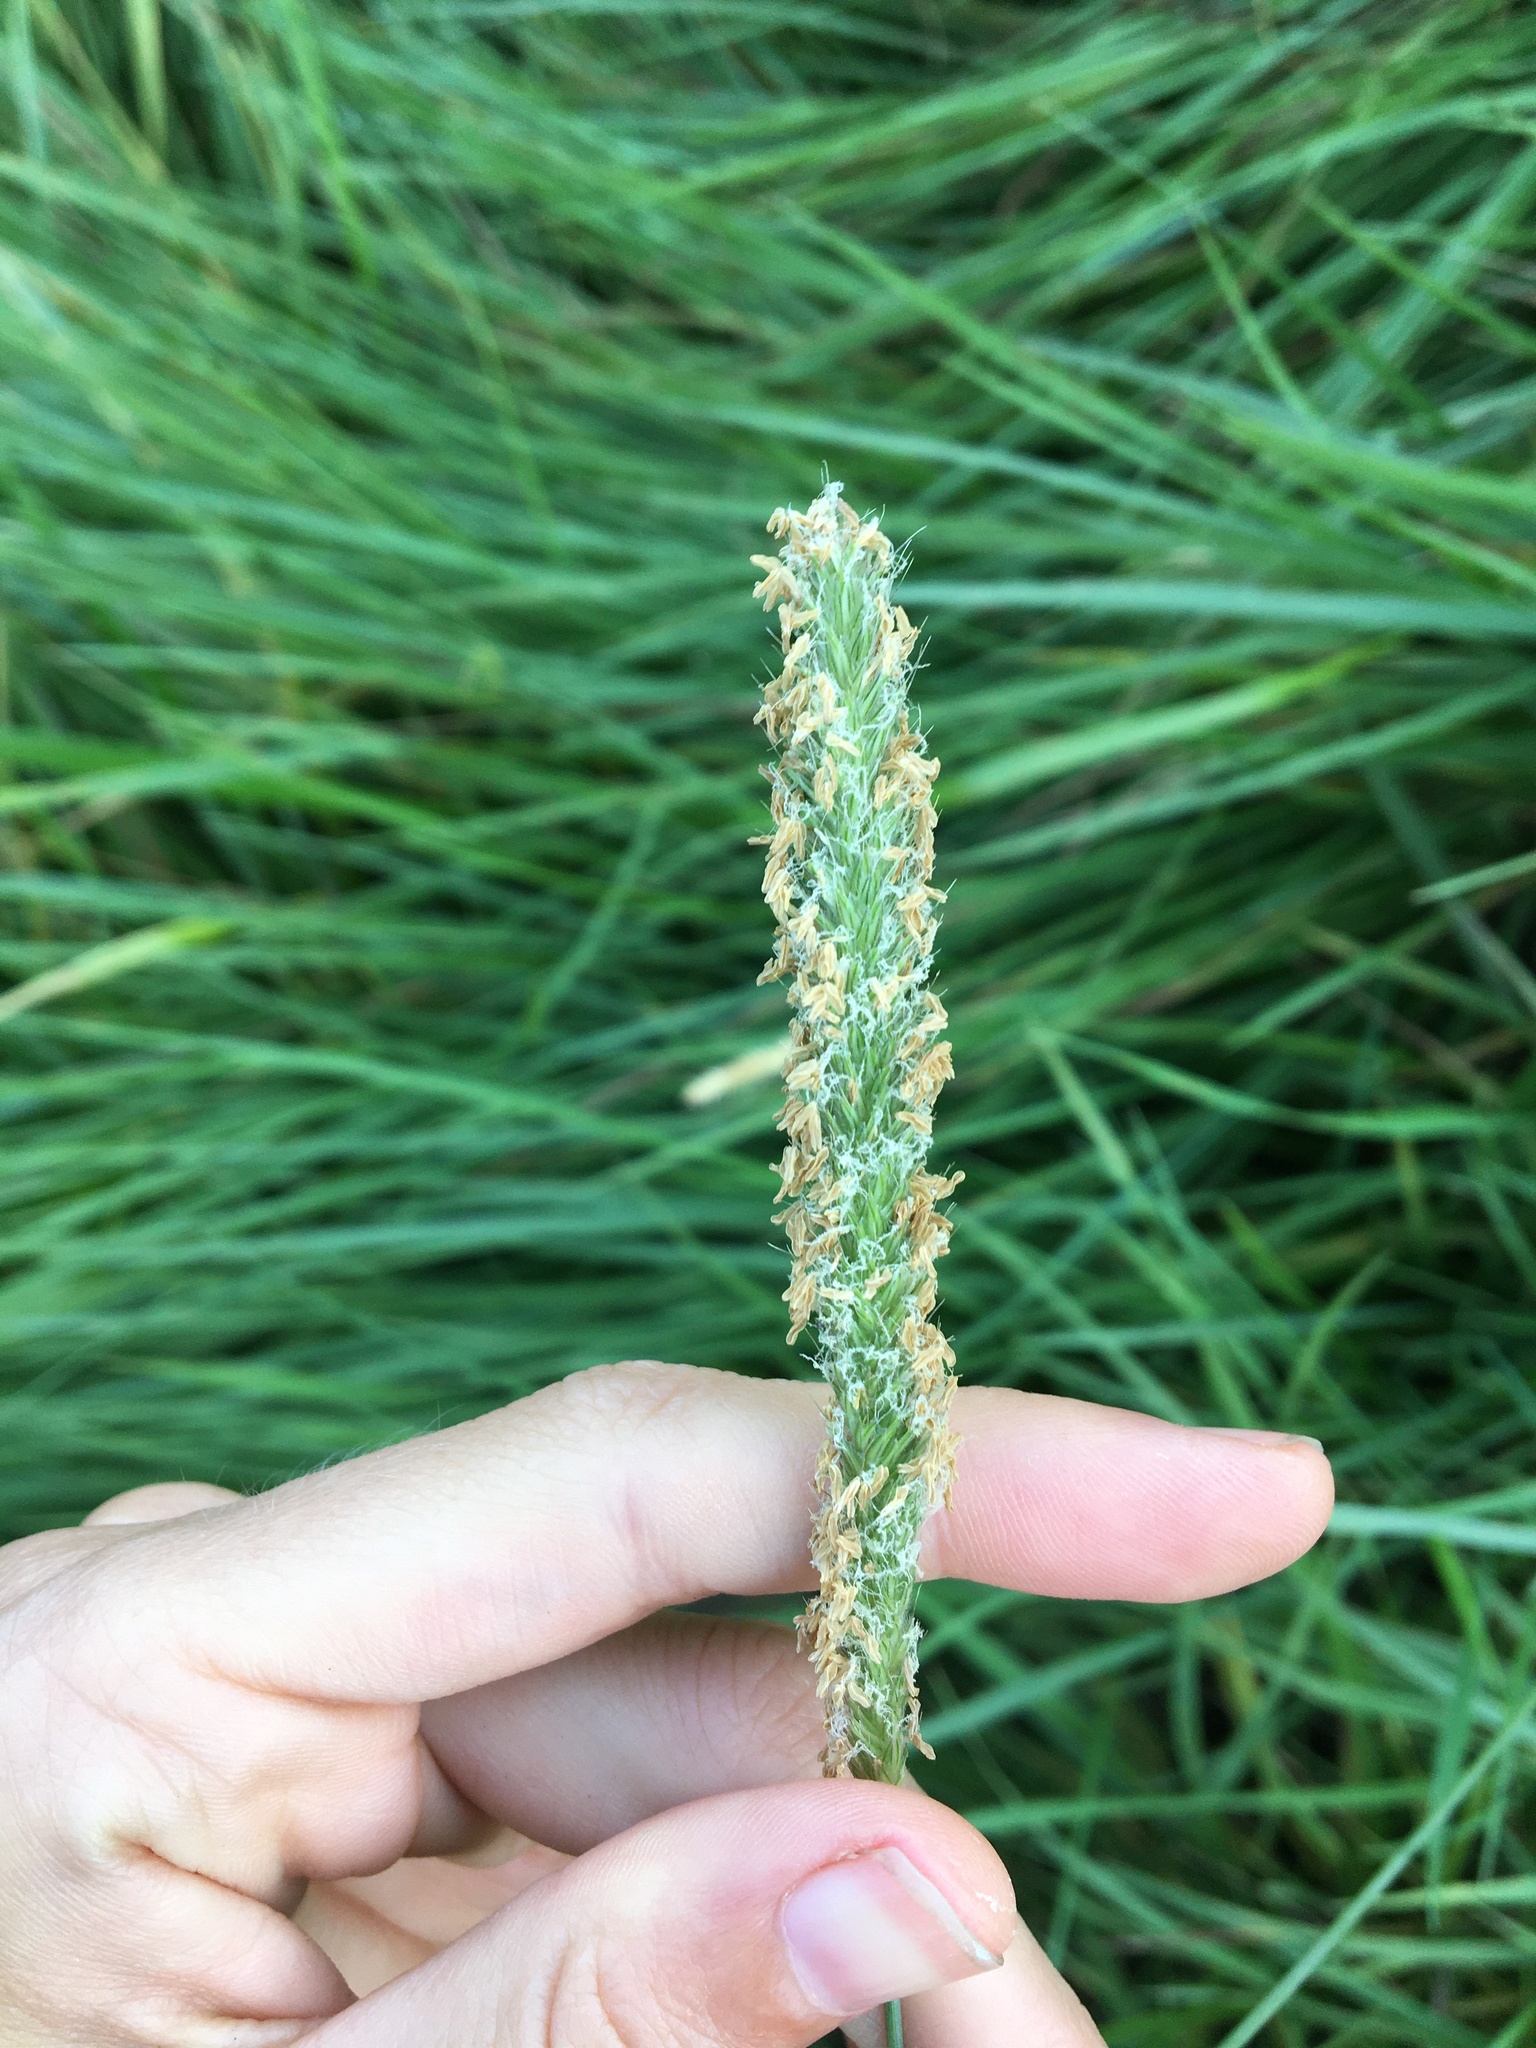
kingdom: Plantae
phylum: Tracheophyta
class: Liliopsida
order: Poales
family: Poaceae
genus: Alopecurus
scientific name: Alopecurus pratensis
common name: Meadow foxtail
